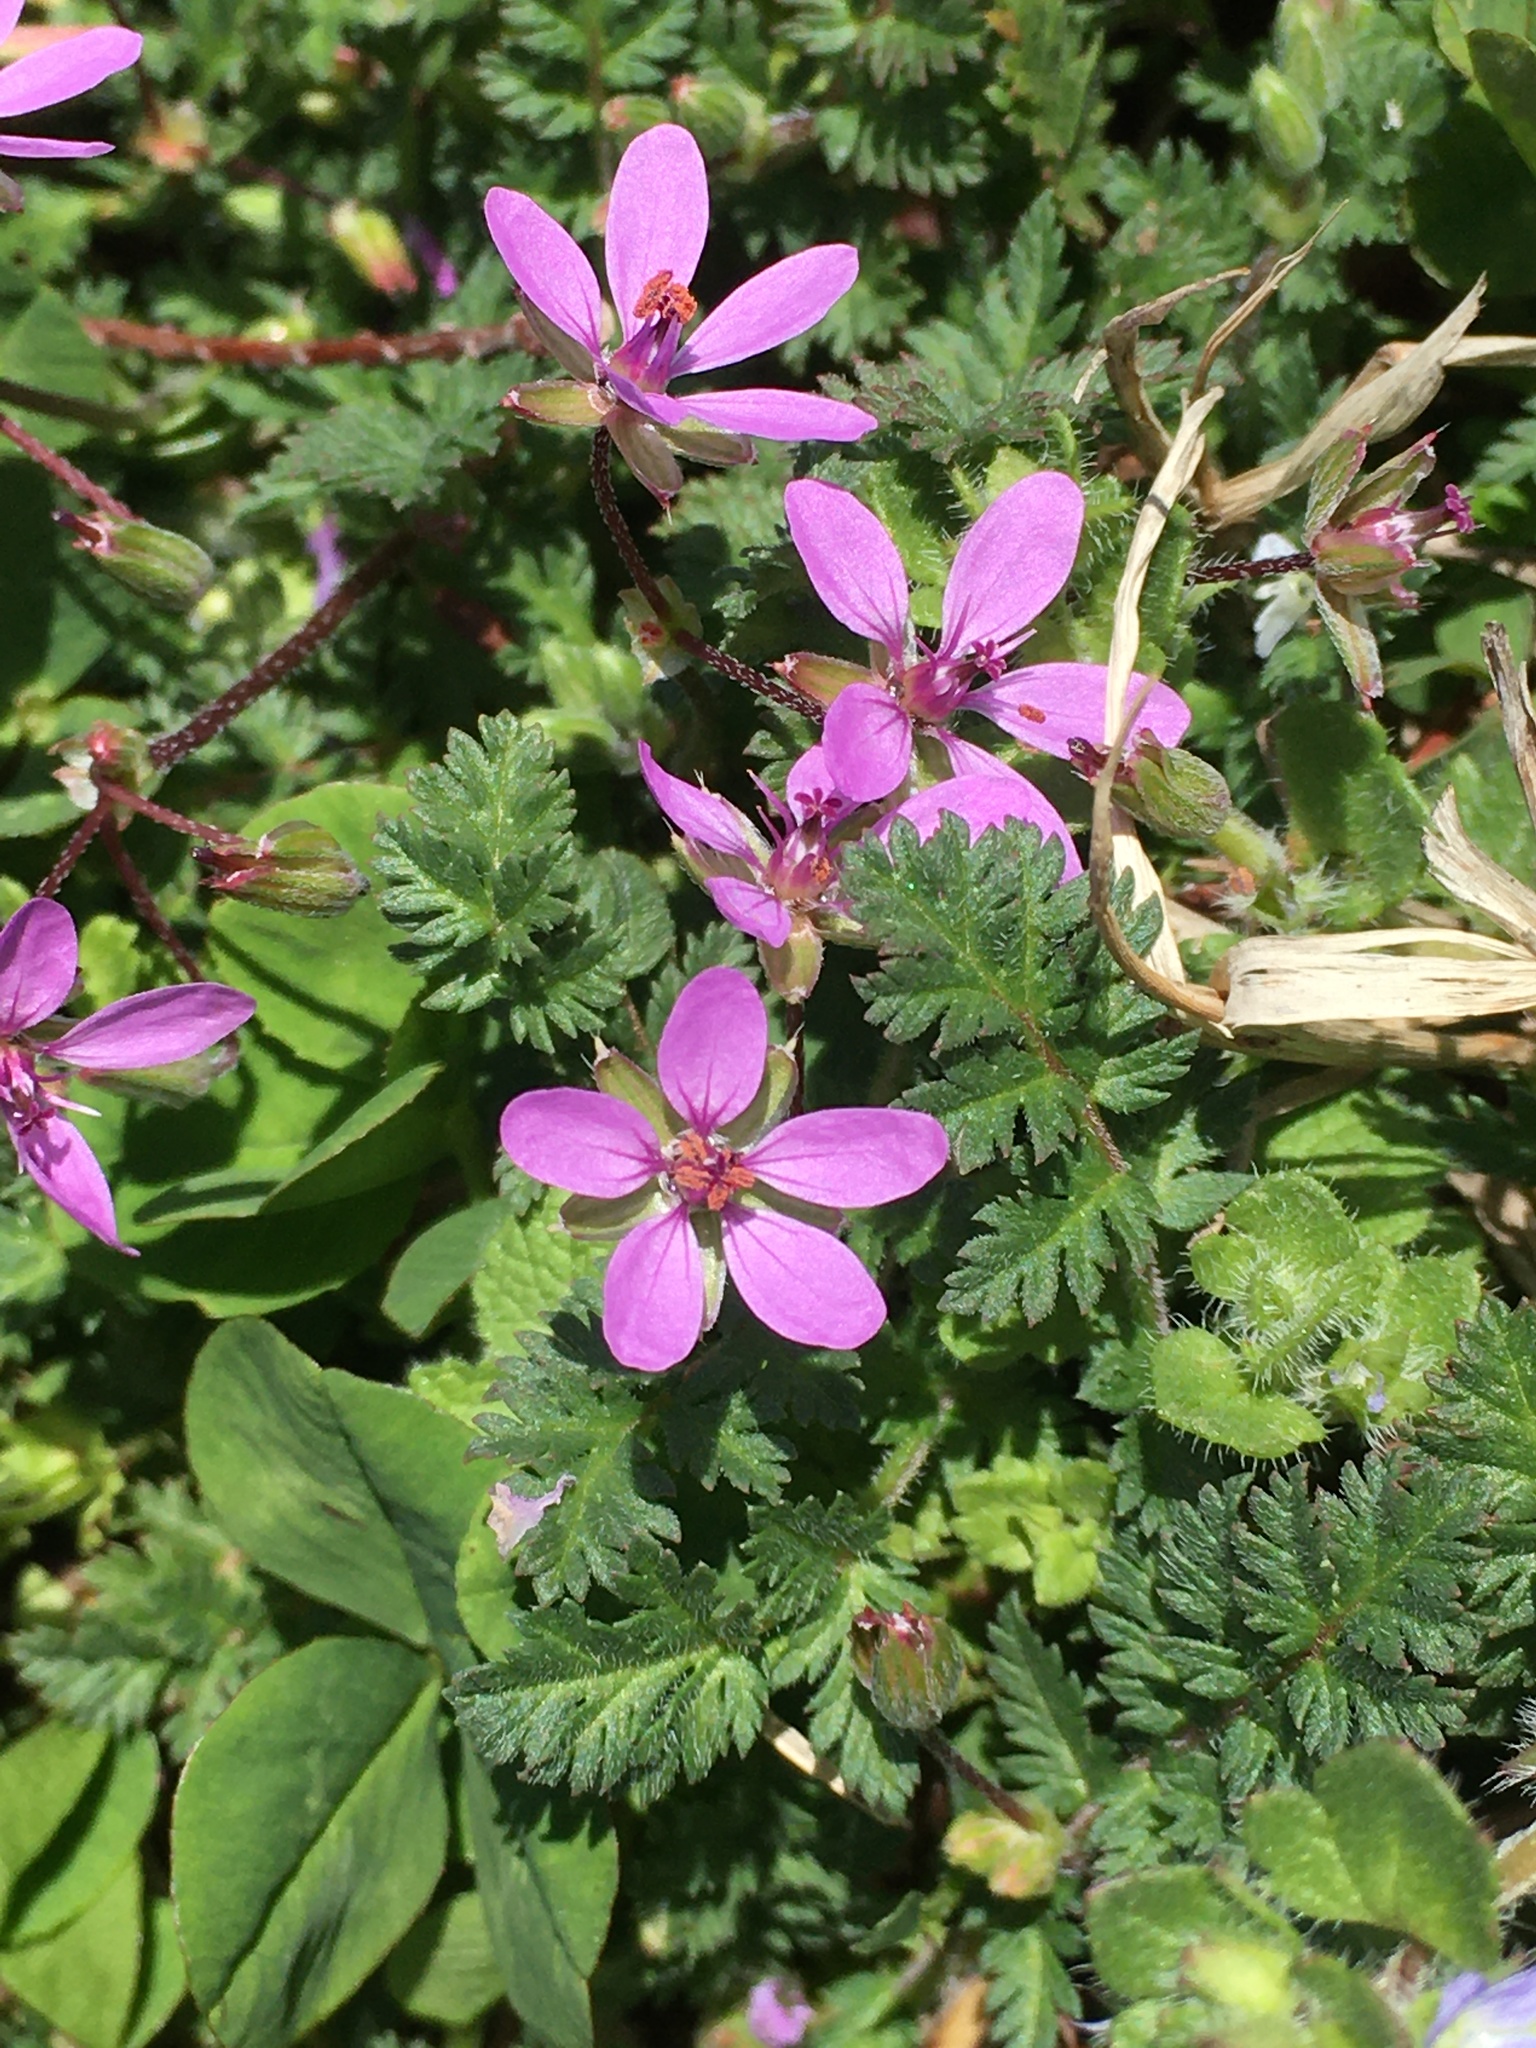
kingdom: Plantae
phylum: Tracheophyta
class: Magnoliopsida
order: Geraniales
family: Geraniaceae
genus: Erodium
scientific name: Erodium cicutarium
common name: Common stork's-bill
